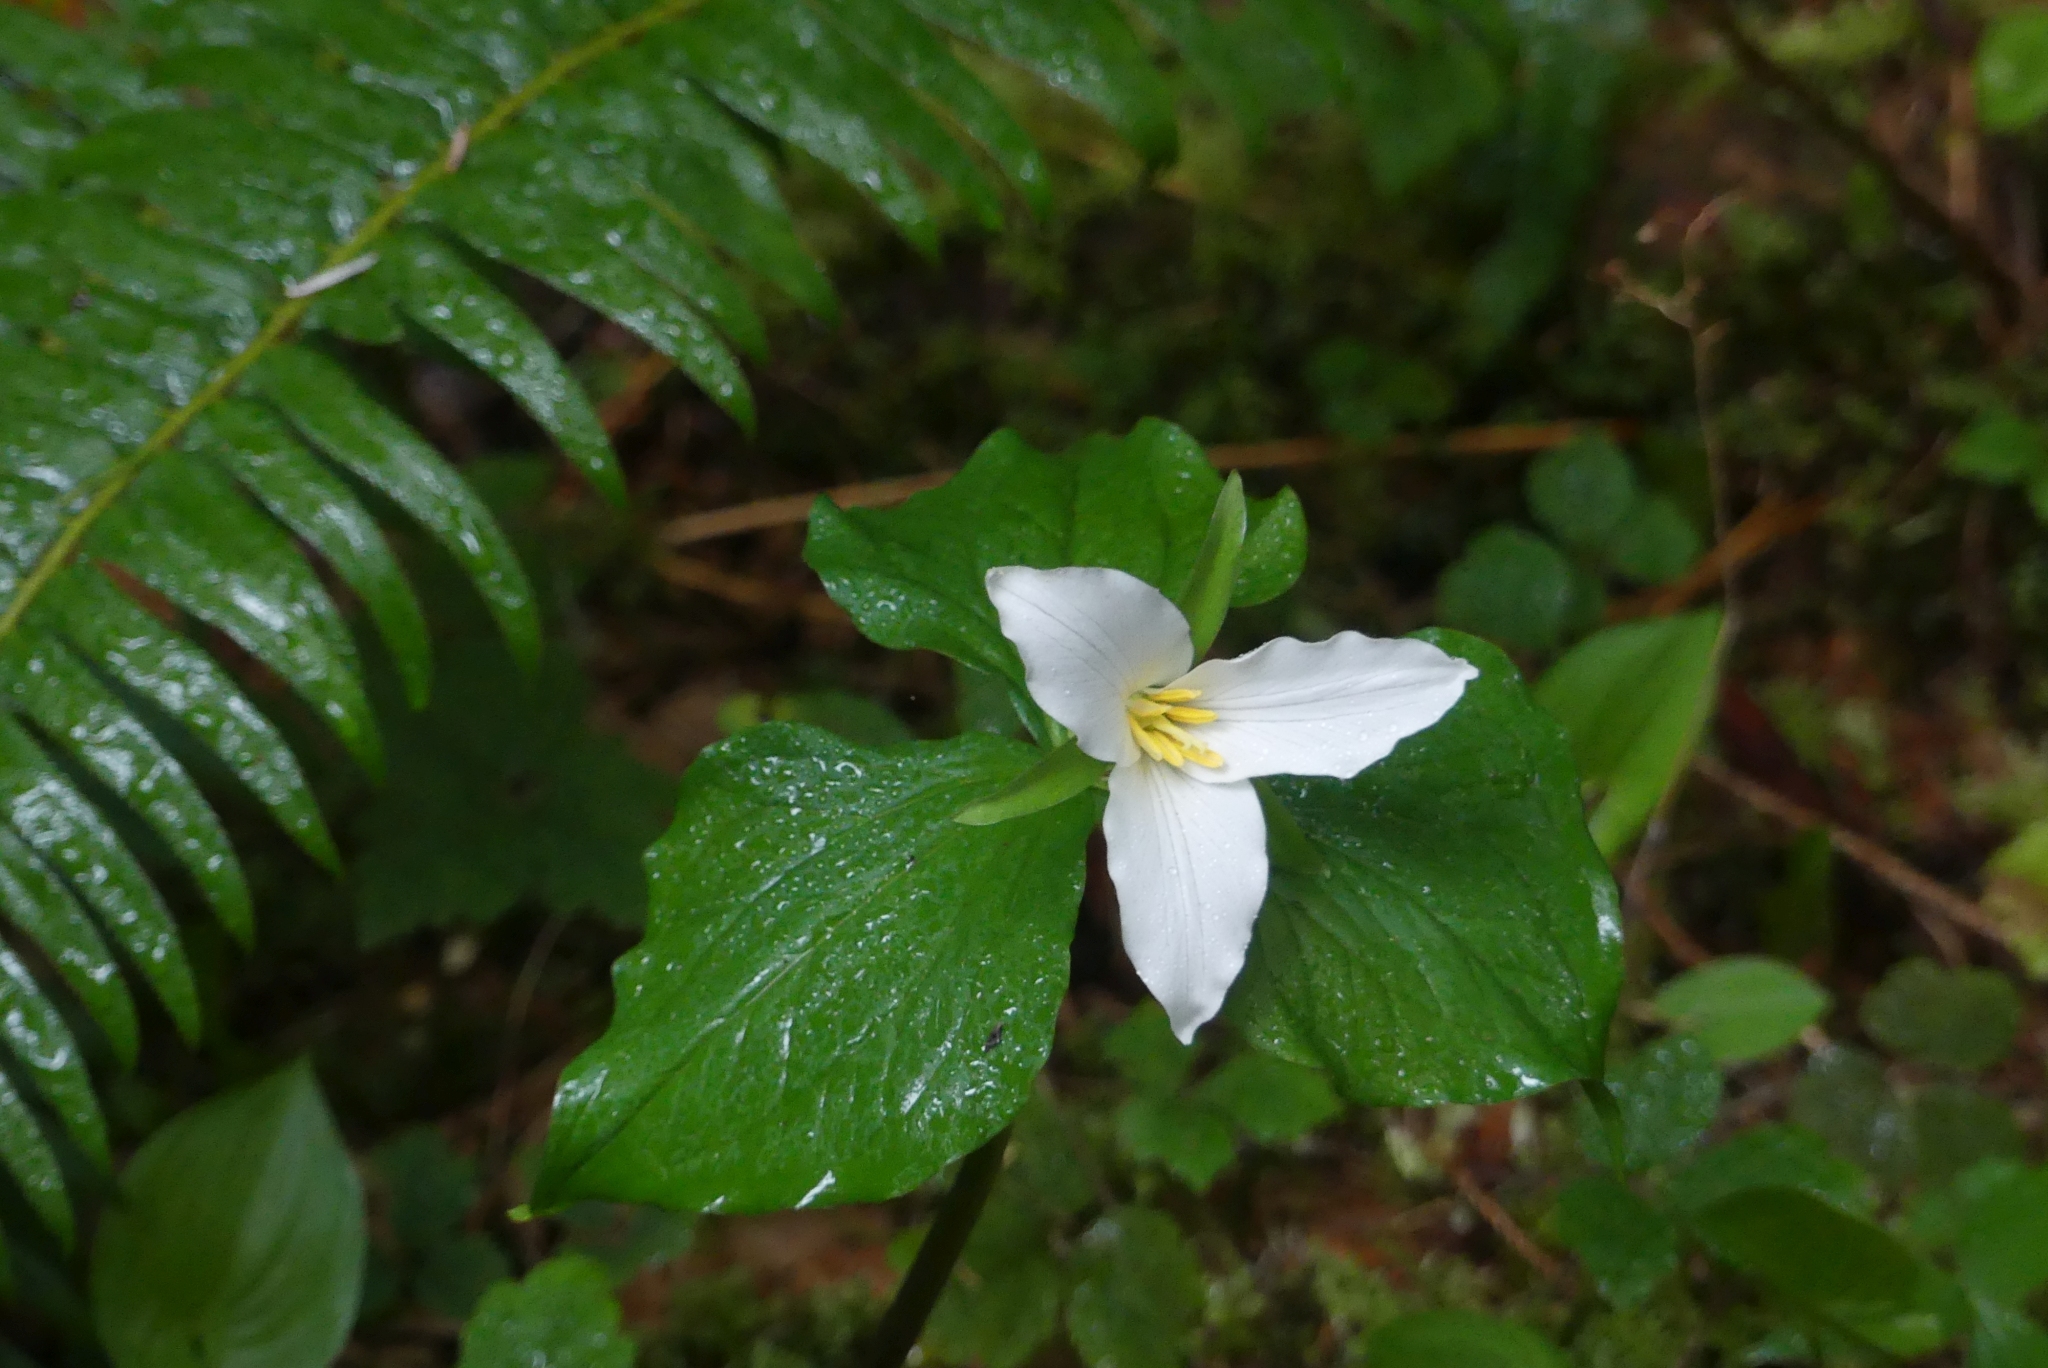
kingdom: Plantae
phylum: Tracheophyta
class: Liliopsida
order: Liliales
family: Melanthiaceae
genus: Trillium
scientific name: Trillium ovatum
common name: Pacific trillium
